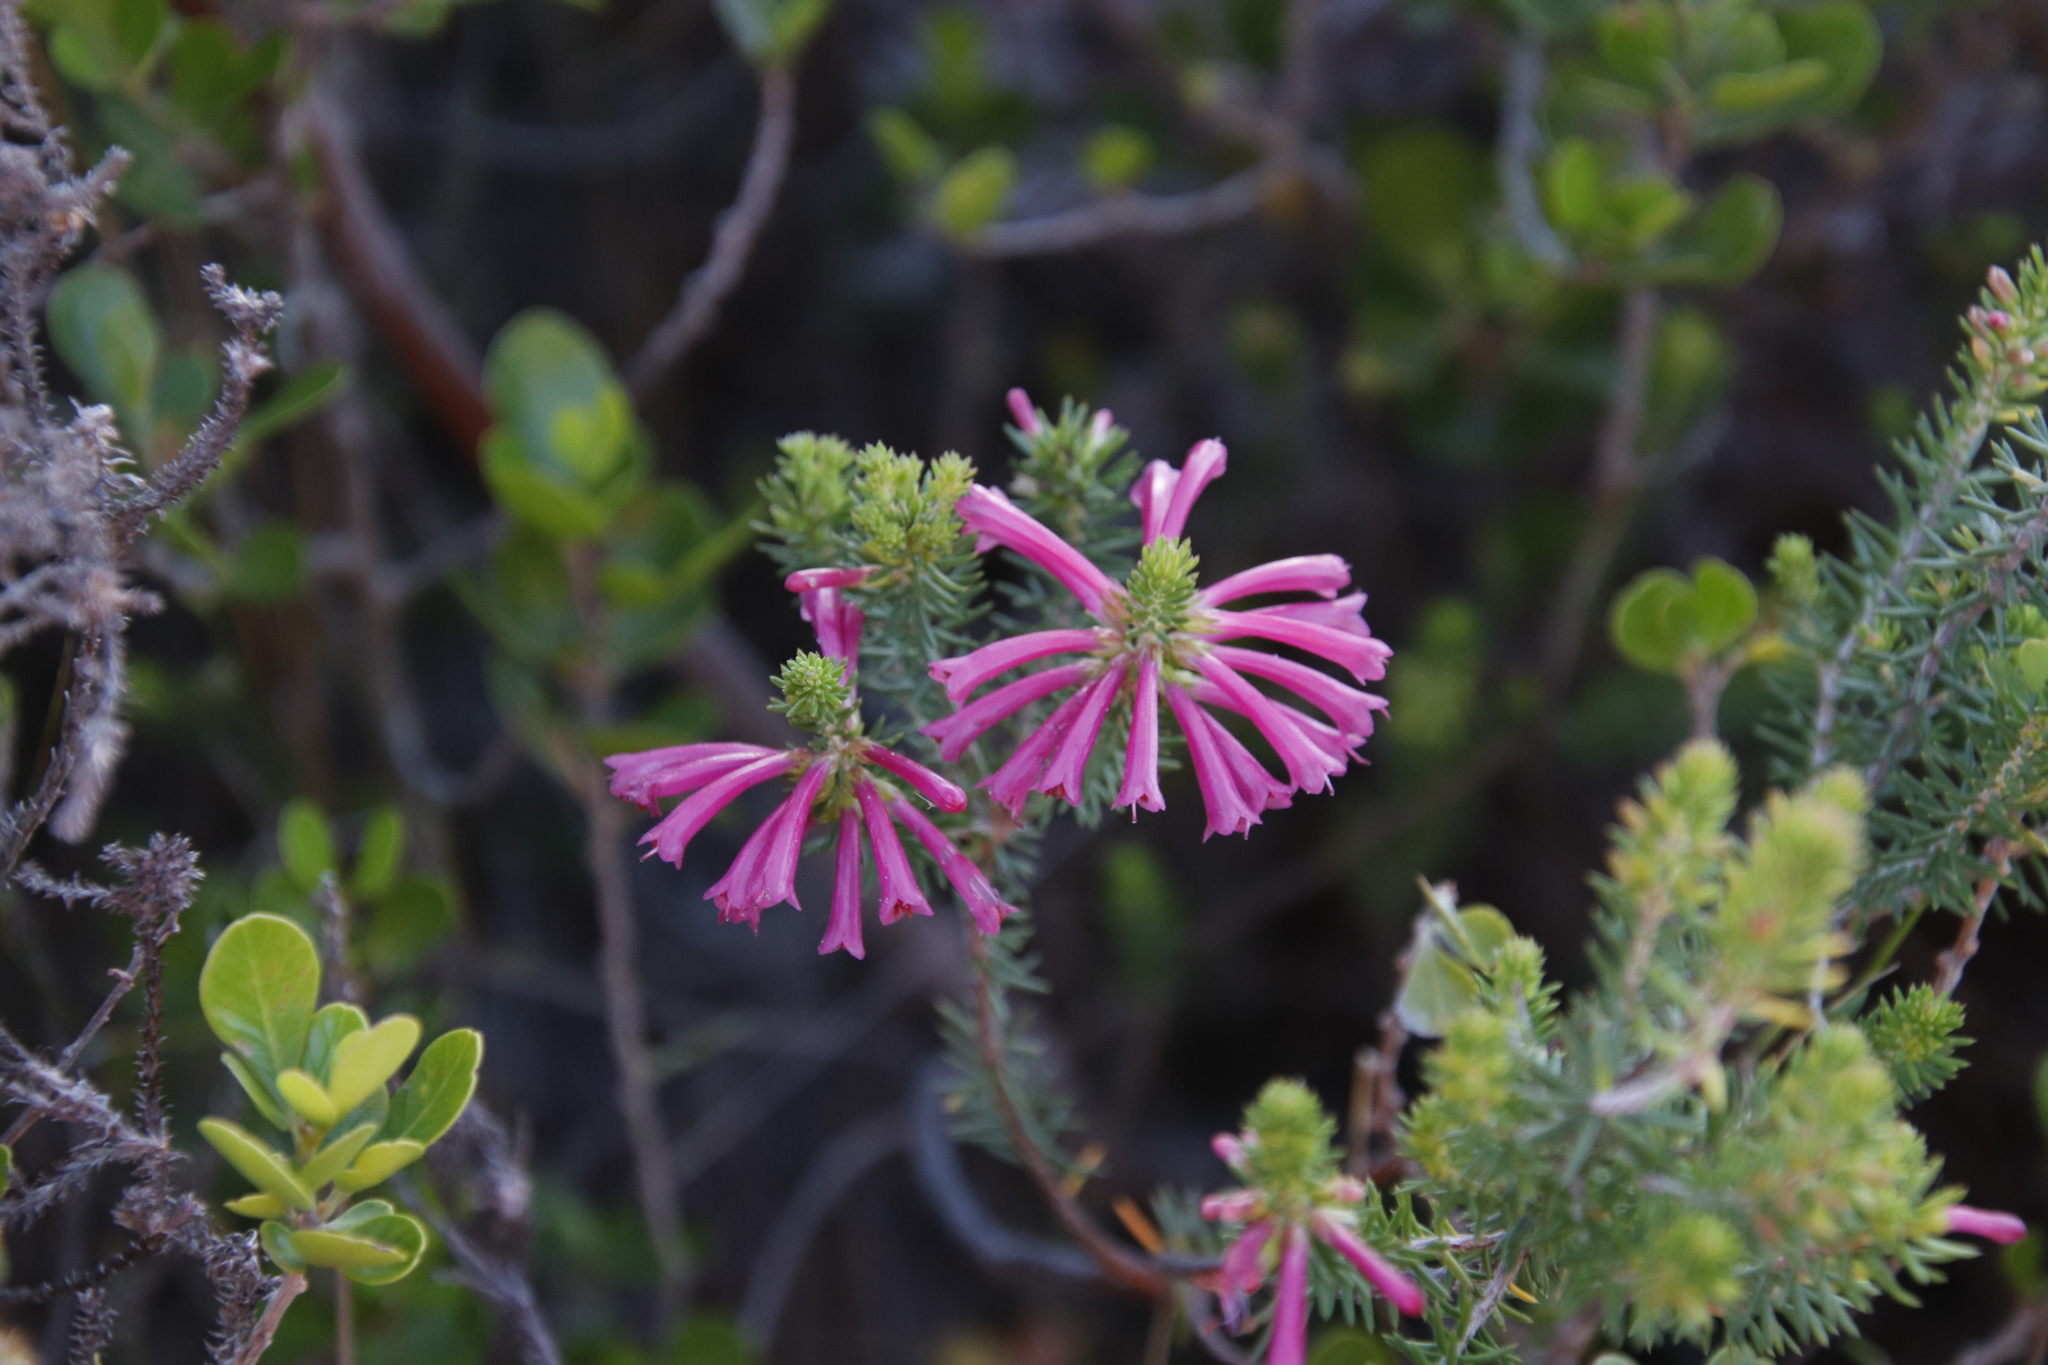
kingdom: Plantae
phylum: Tracheophyta
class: Magnoliopsida
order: Ericales
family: Ericaceae
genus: Erica
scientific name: Erica abietina
